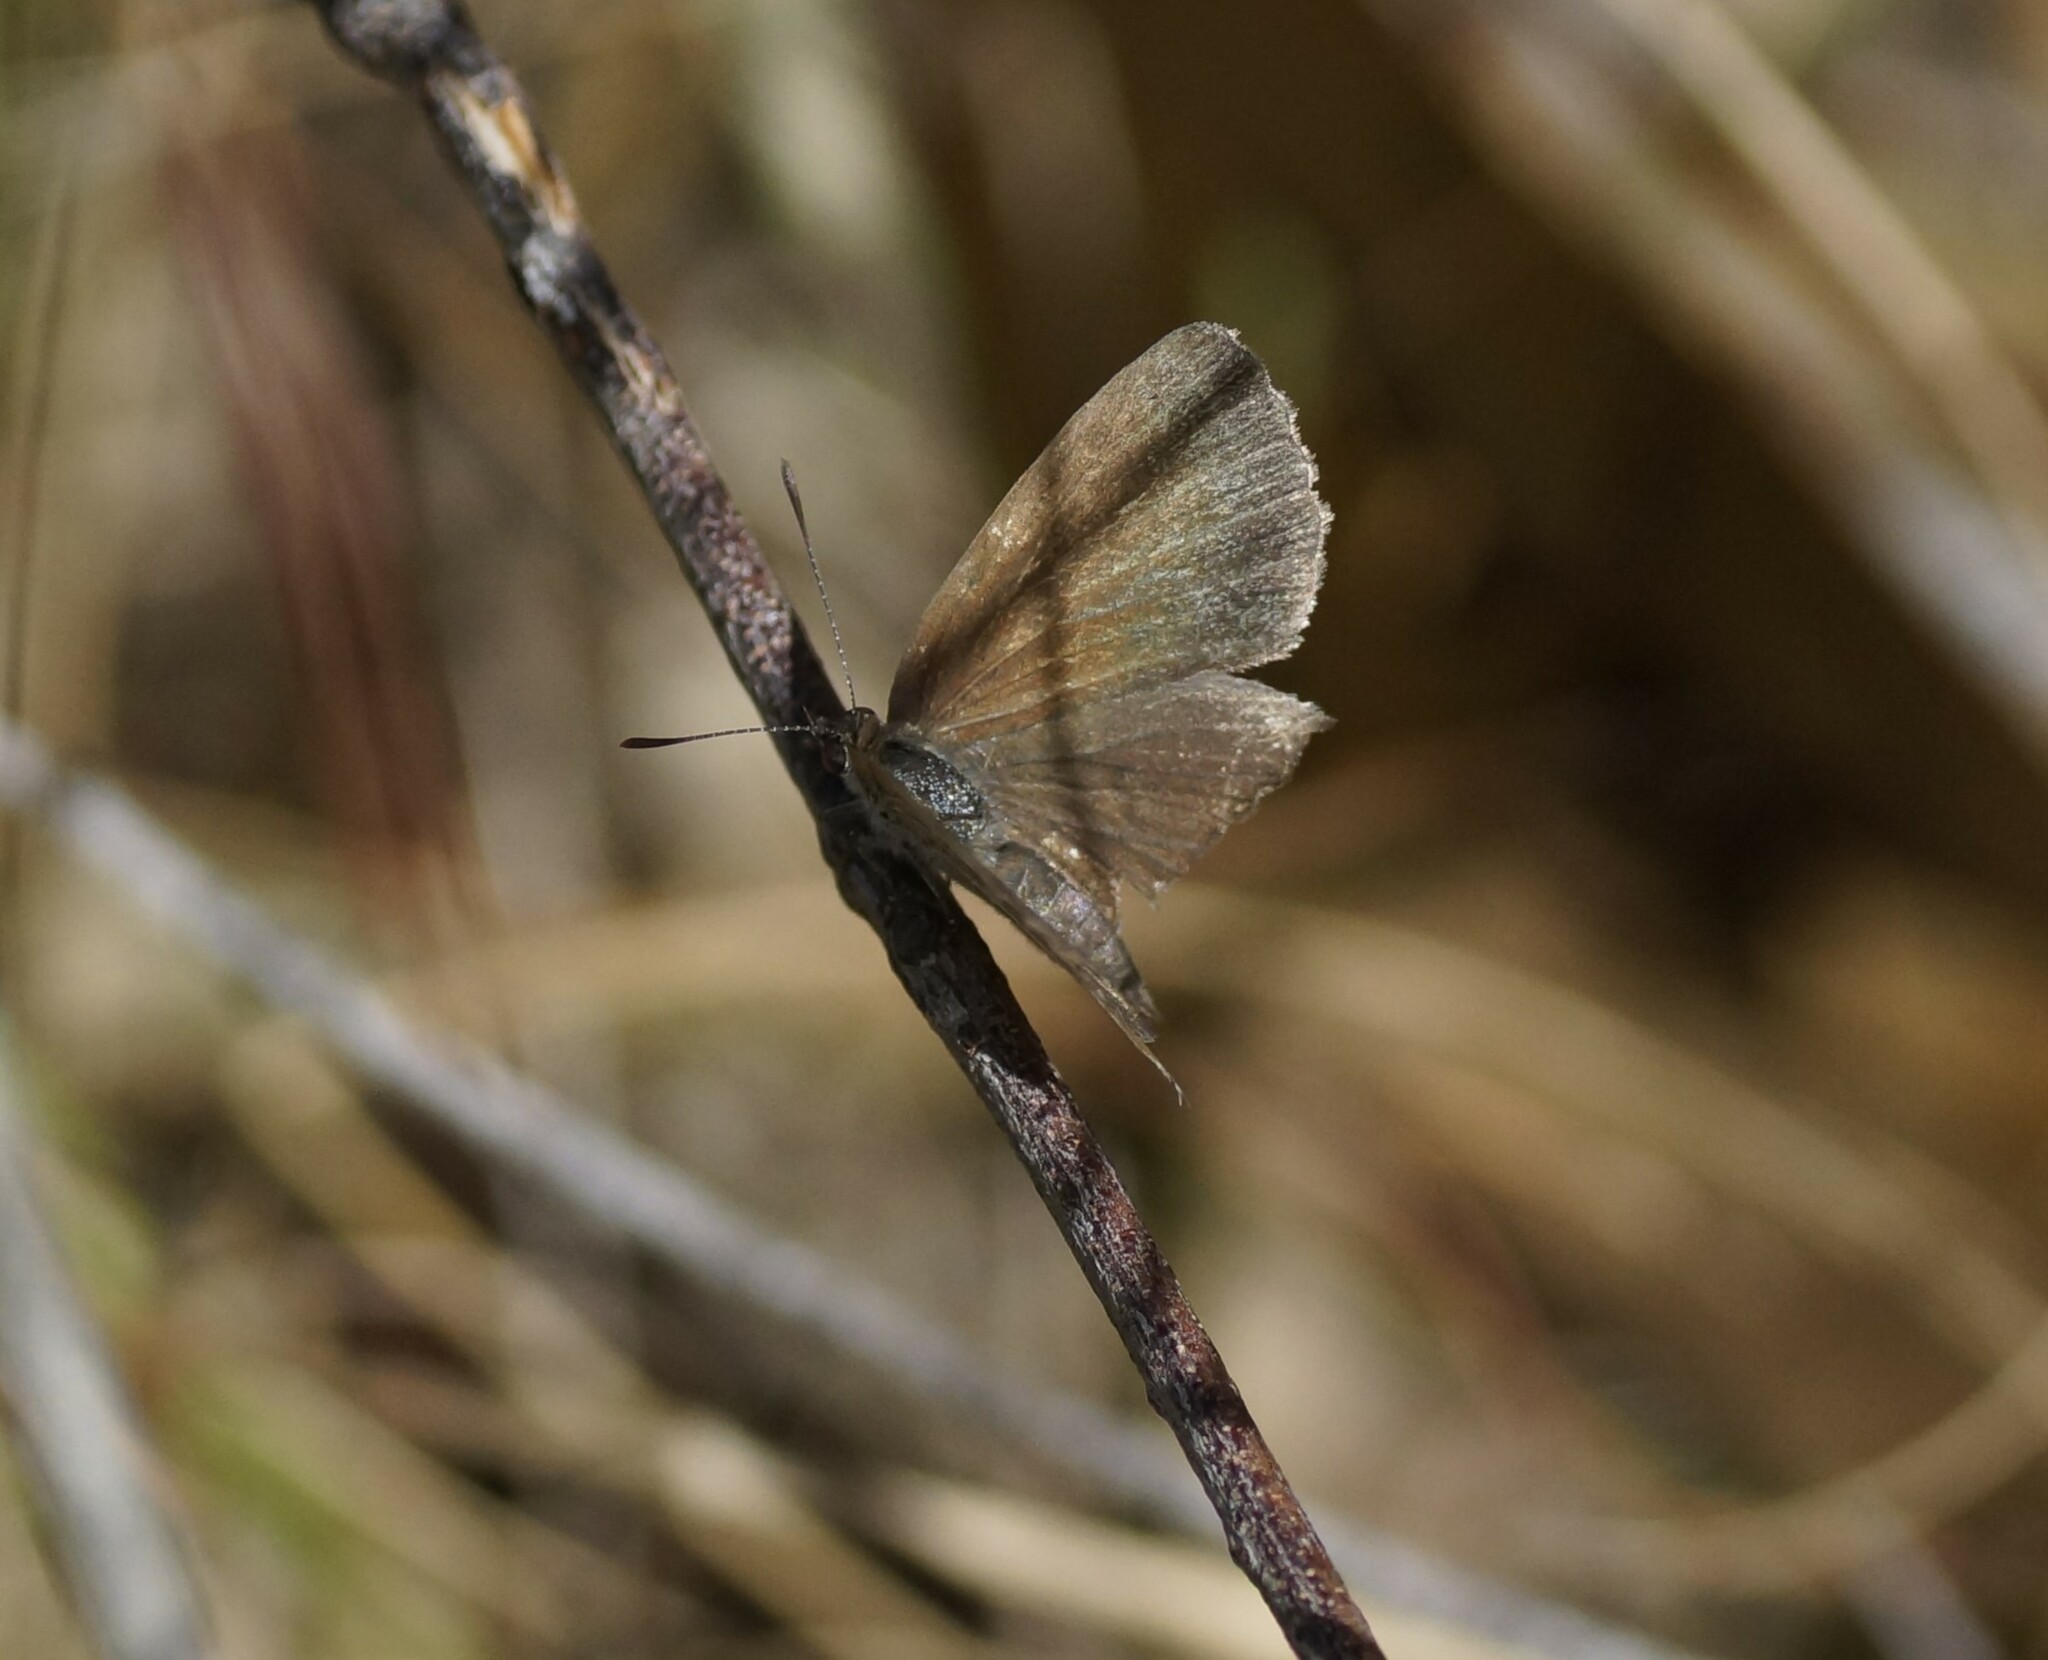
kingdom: Animalia
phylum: Arthropoda
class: Insecta
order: Lepidoptera
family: Lycaenidae
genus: Candalides
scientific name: Candalides
